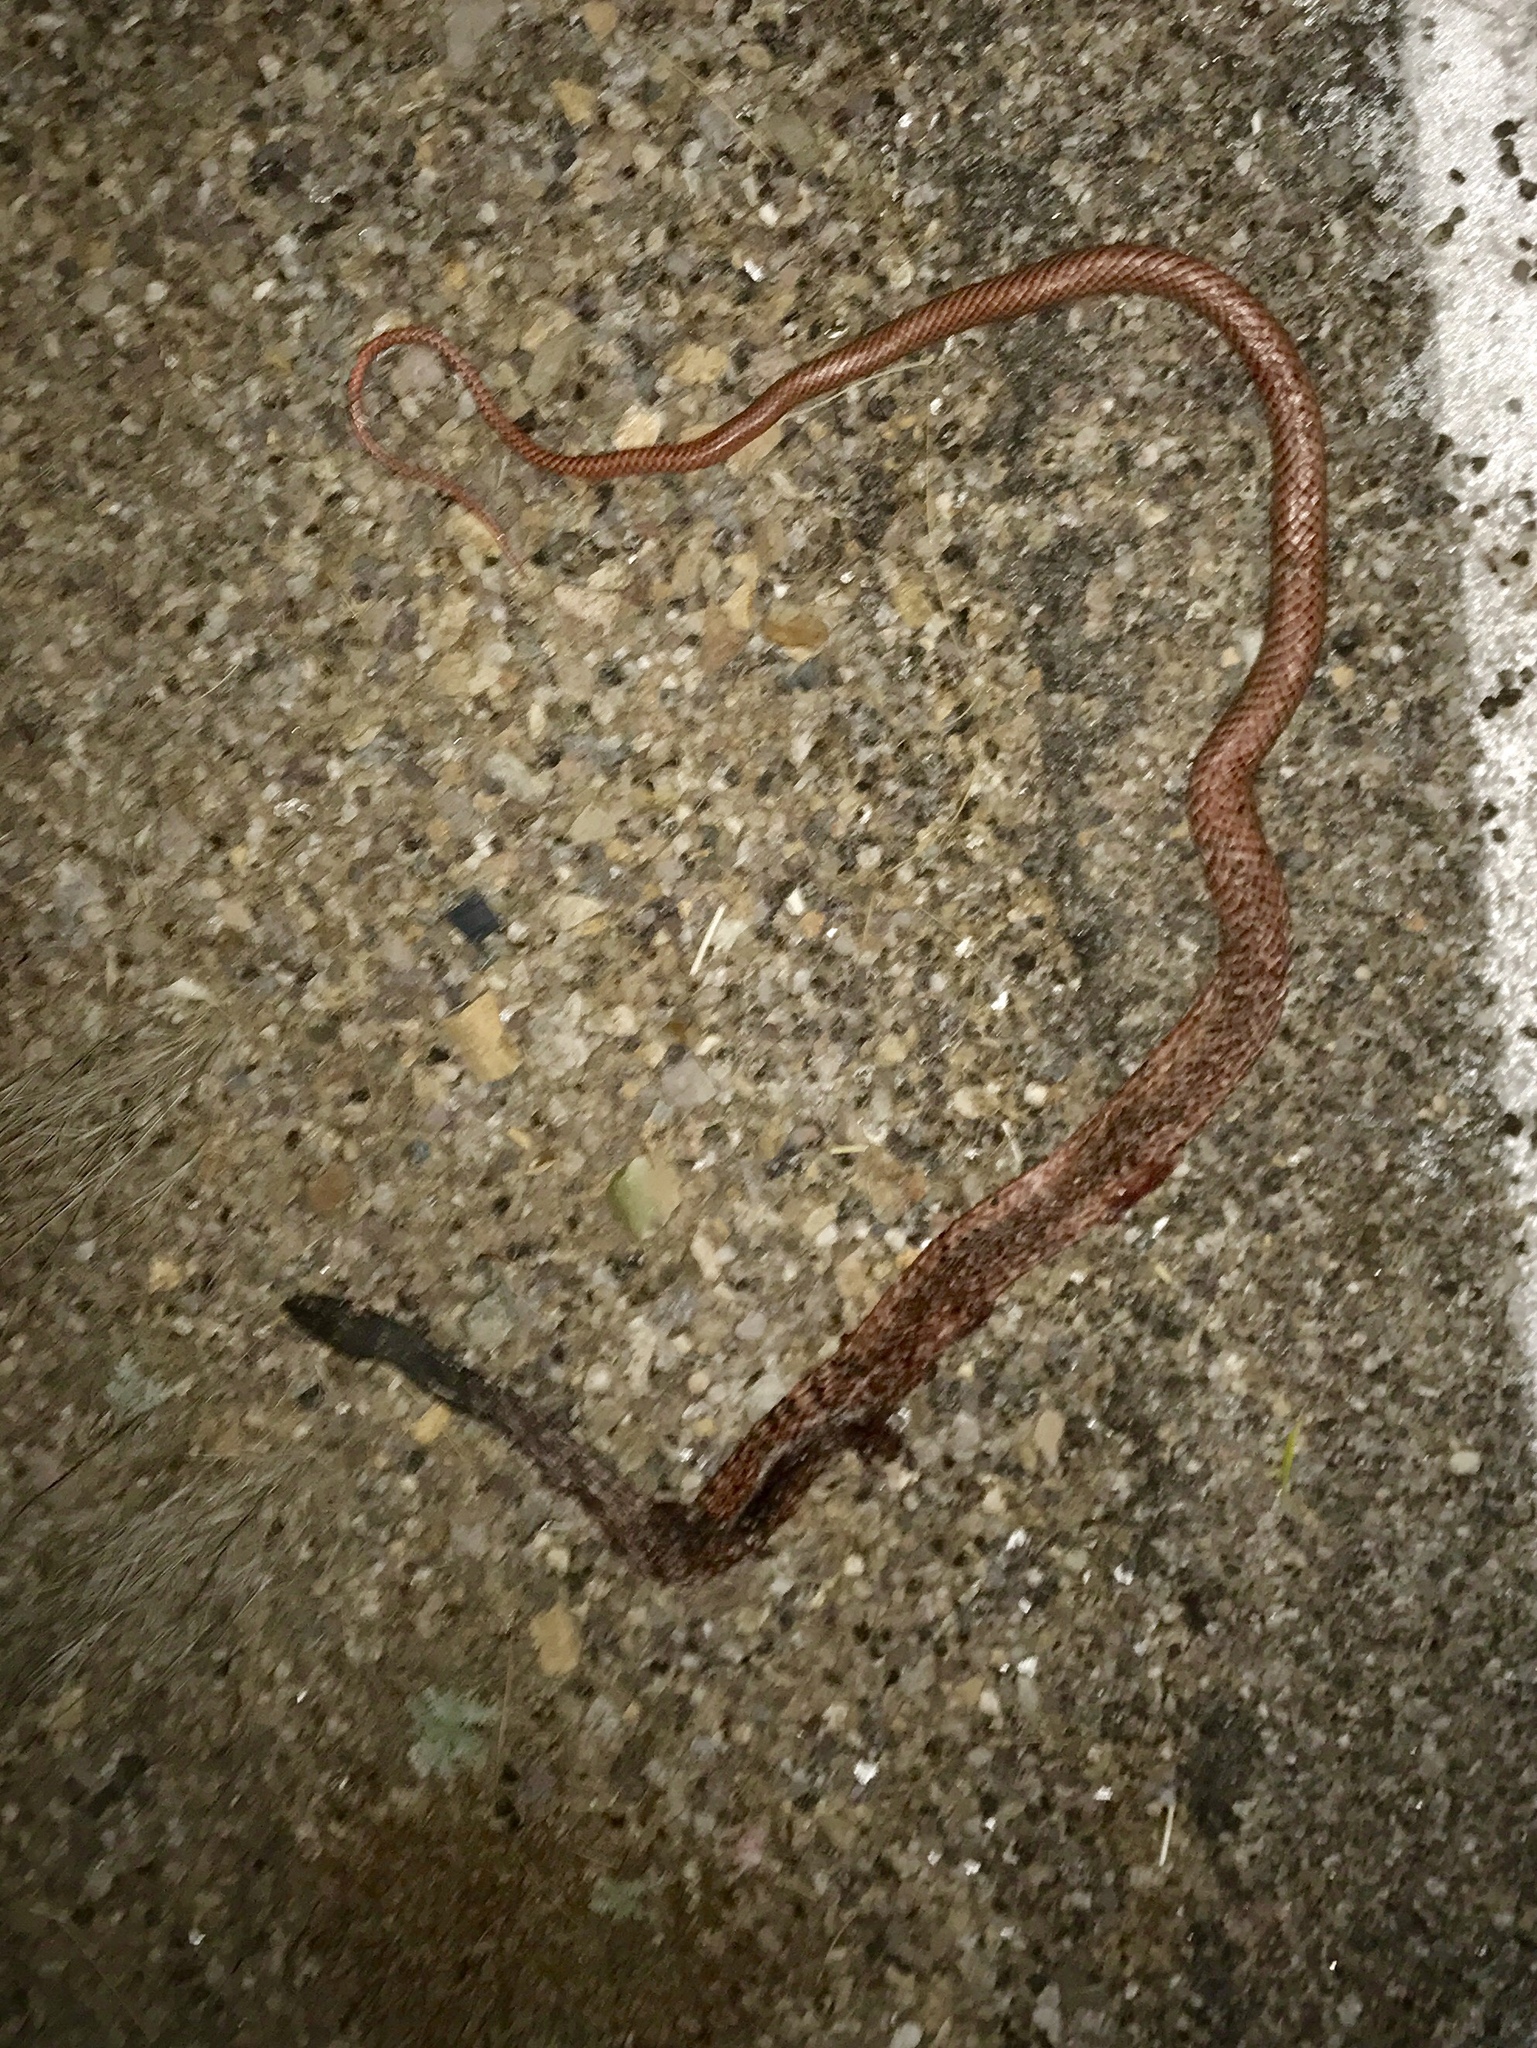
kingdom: Animalia
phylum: Chordata
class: Squamata
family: Colubridae
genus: Masticophis
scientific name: Masticophis flagellum
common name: Coachwhip
